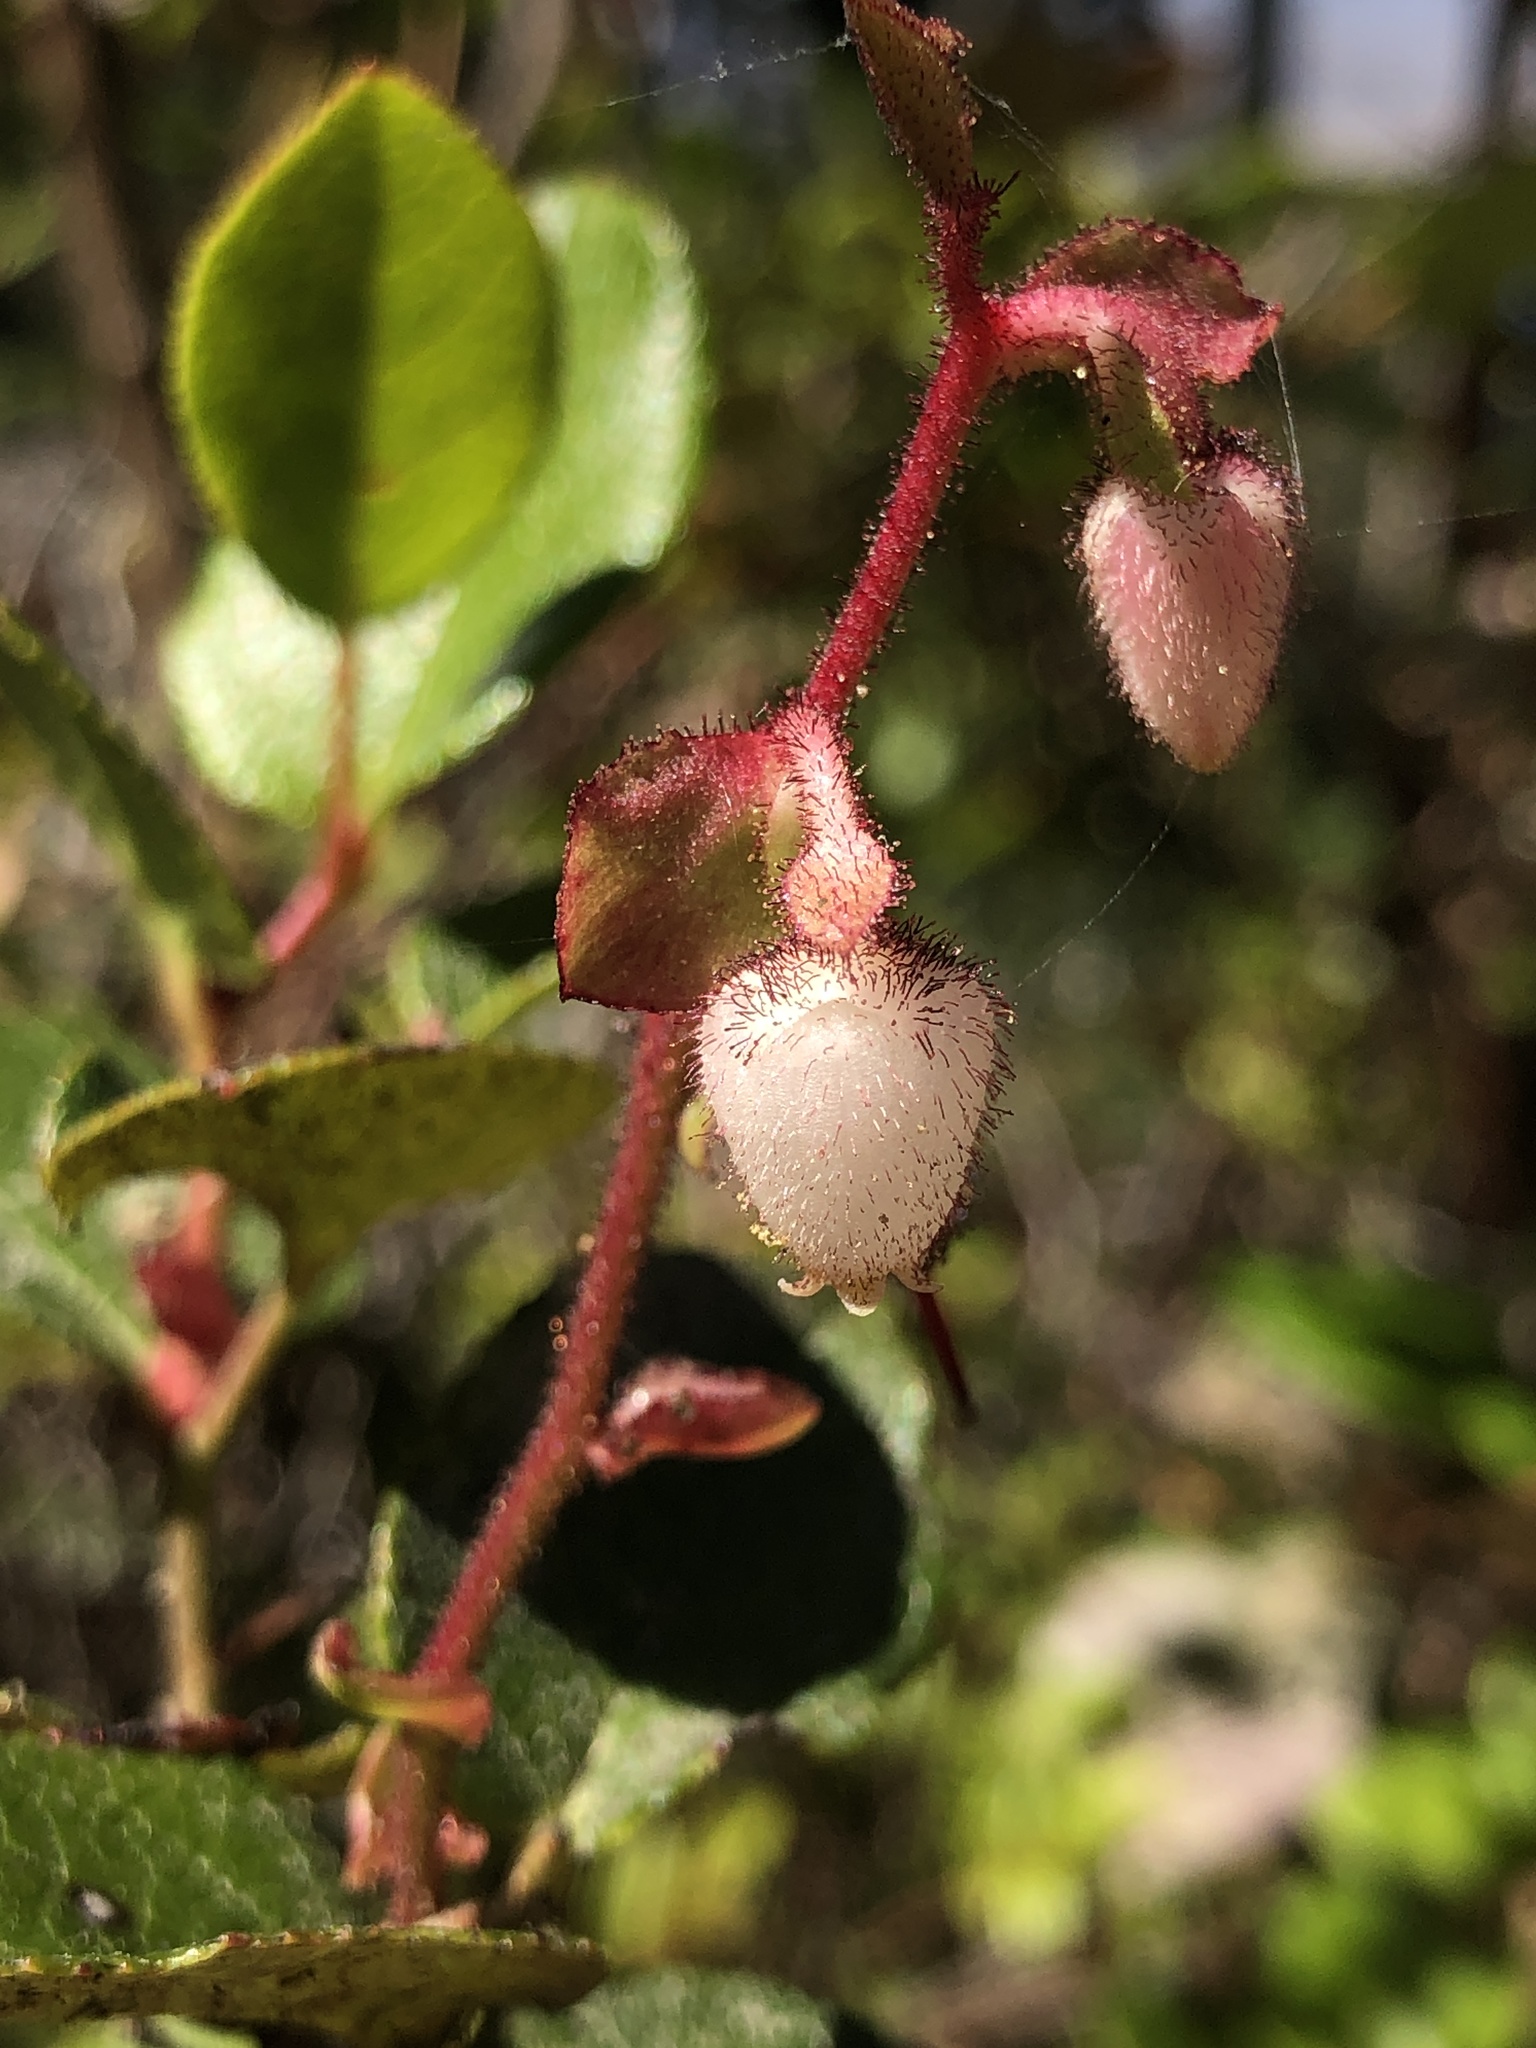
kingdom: Plantae
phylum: Tracheophyta
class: Magnoliopsida
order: Ericales
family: Ericaceae
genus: Gaultheria
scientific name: Gaultheria shallon
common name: Shallon
